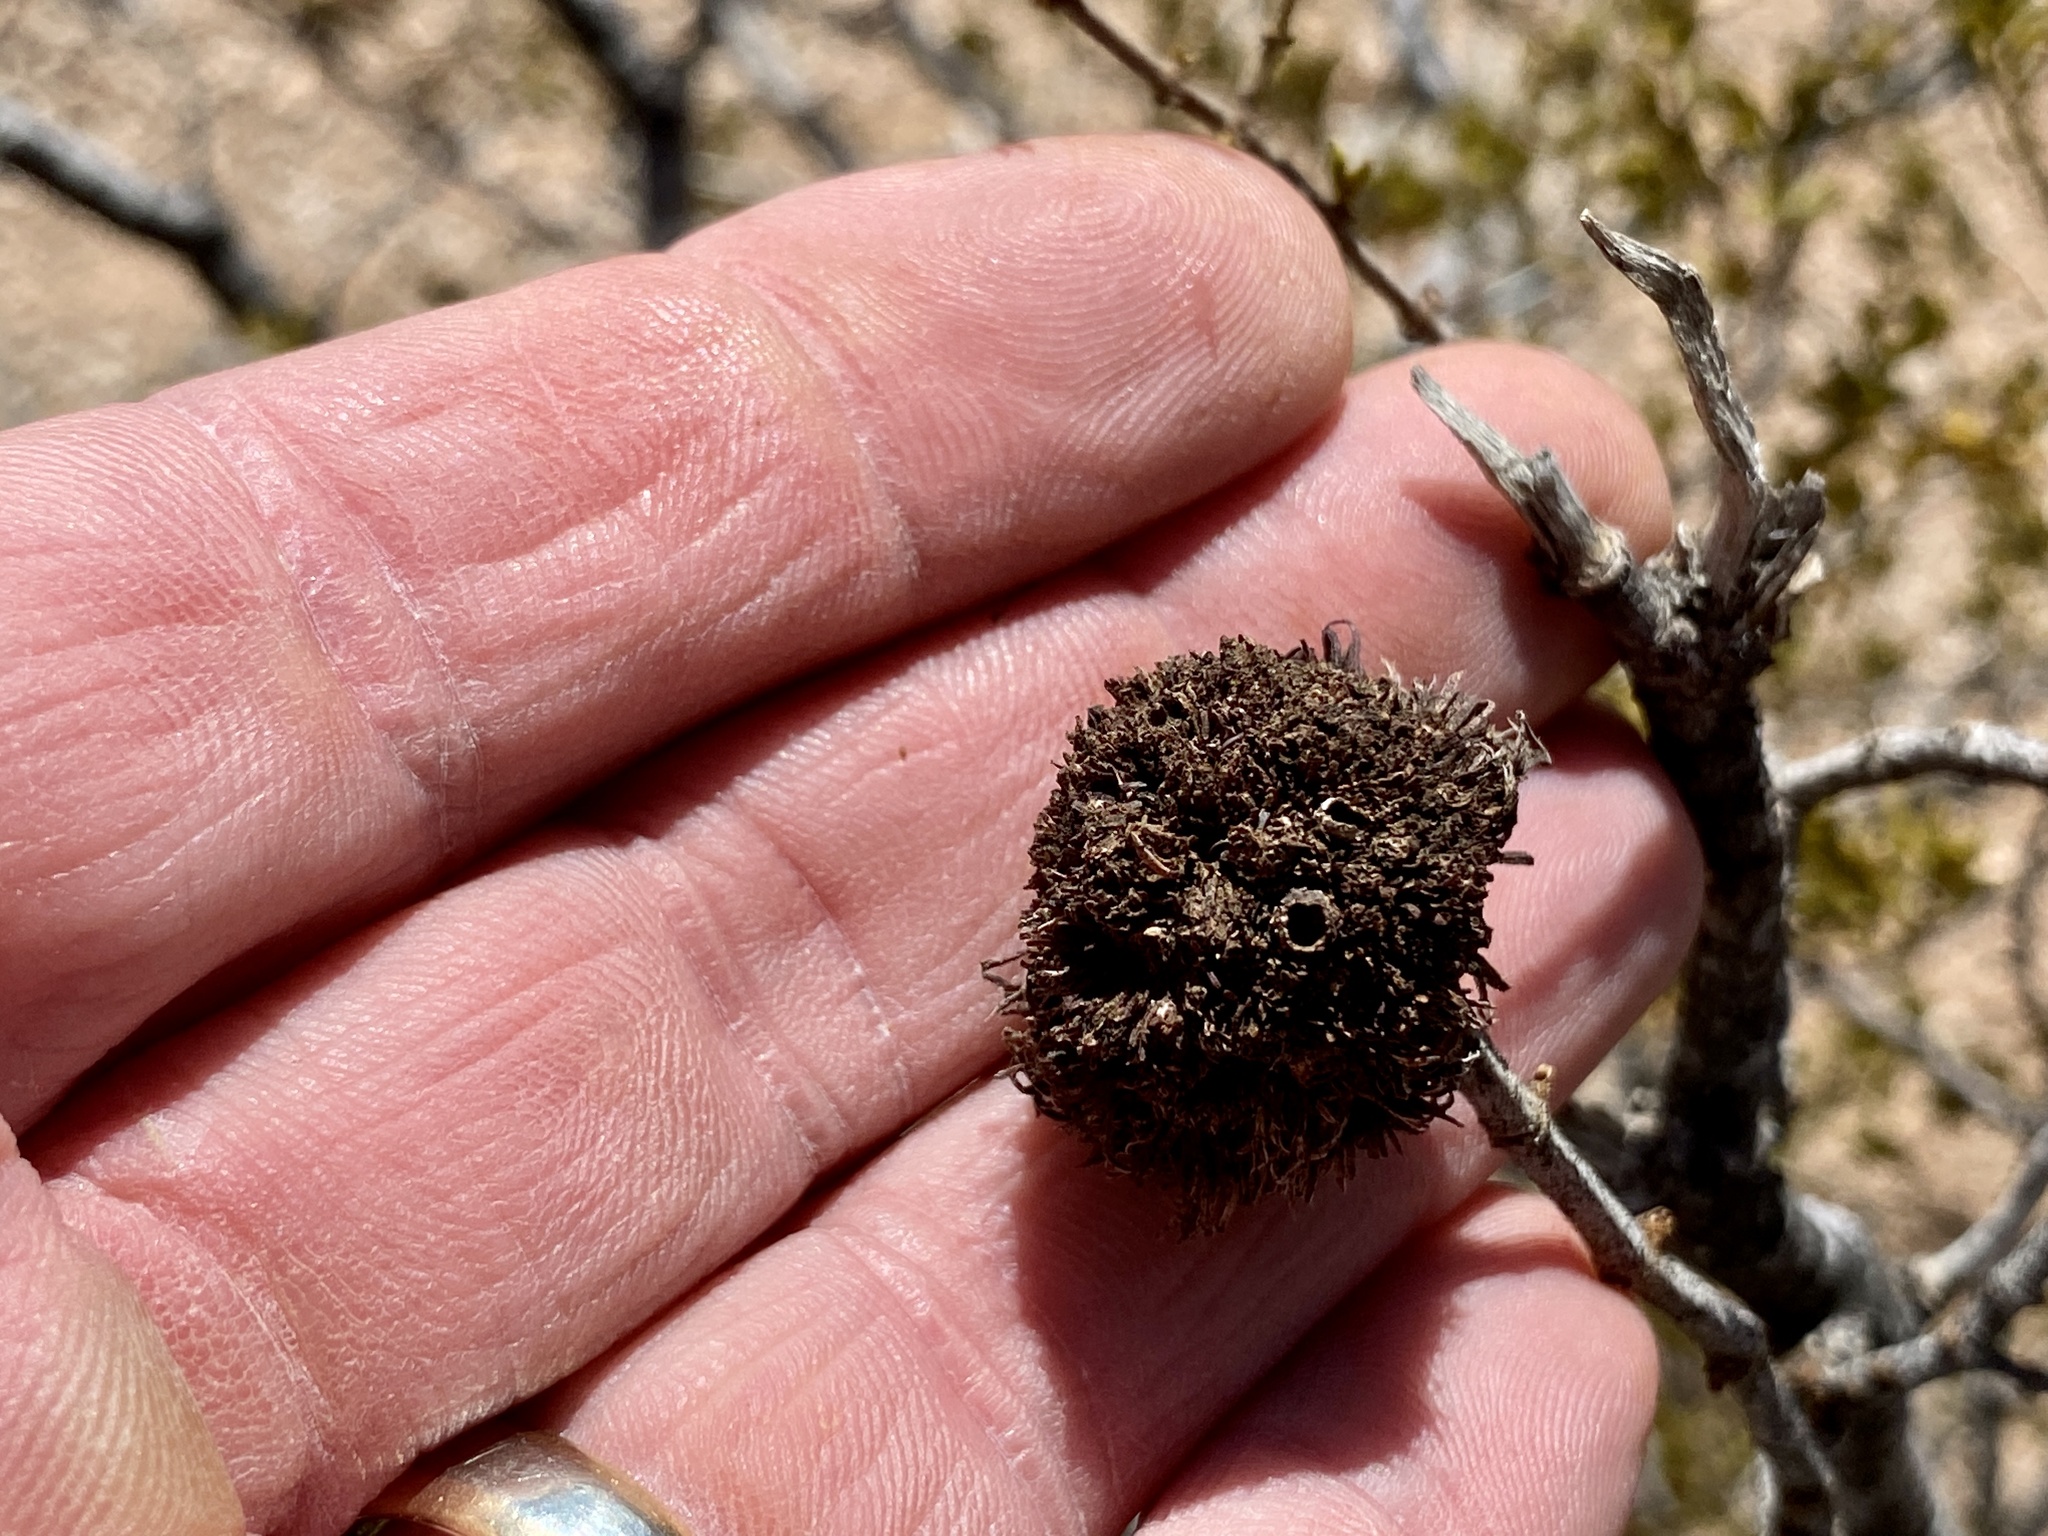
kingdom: Animalia
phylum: Arthropoda
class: Insecta
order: Diptera
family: Cecidomyiidae
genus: Asphondylia
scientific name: Asphondylia auripila
